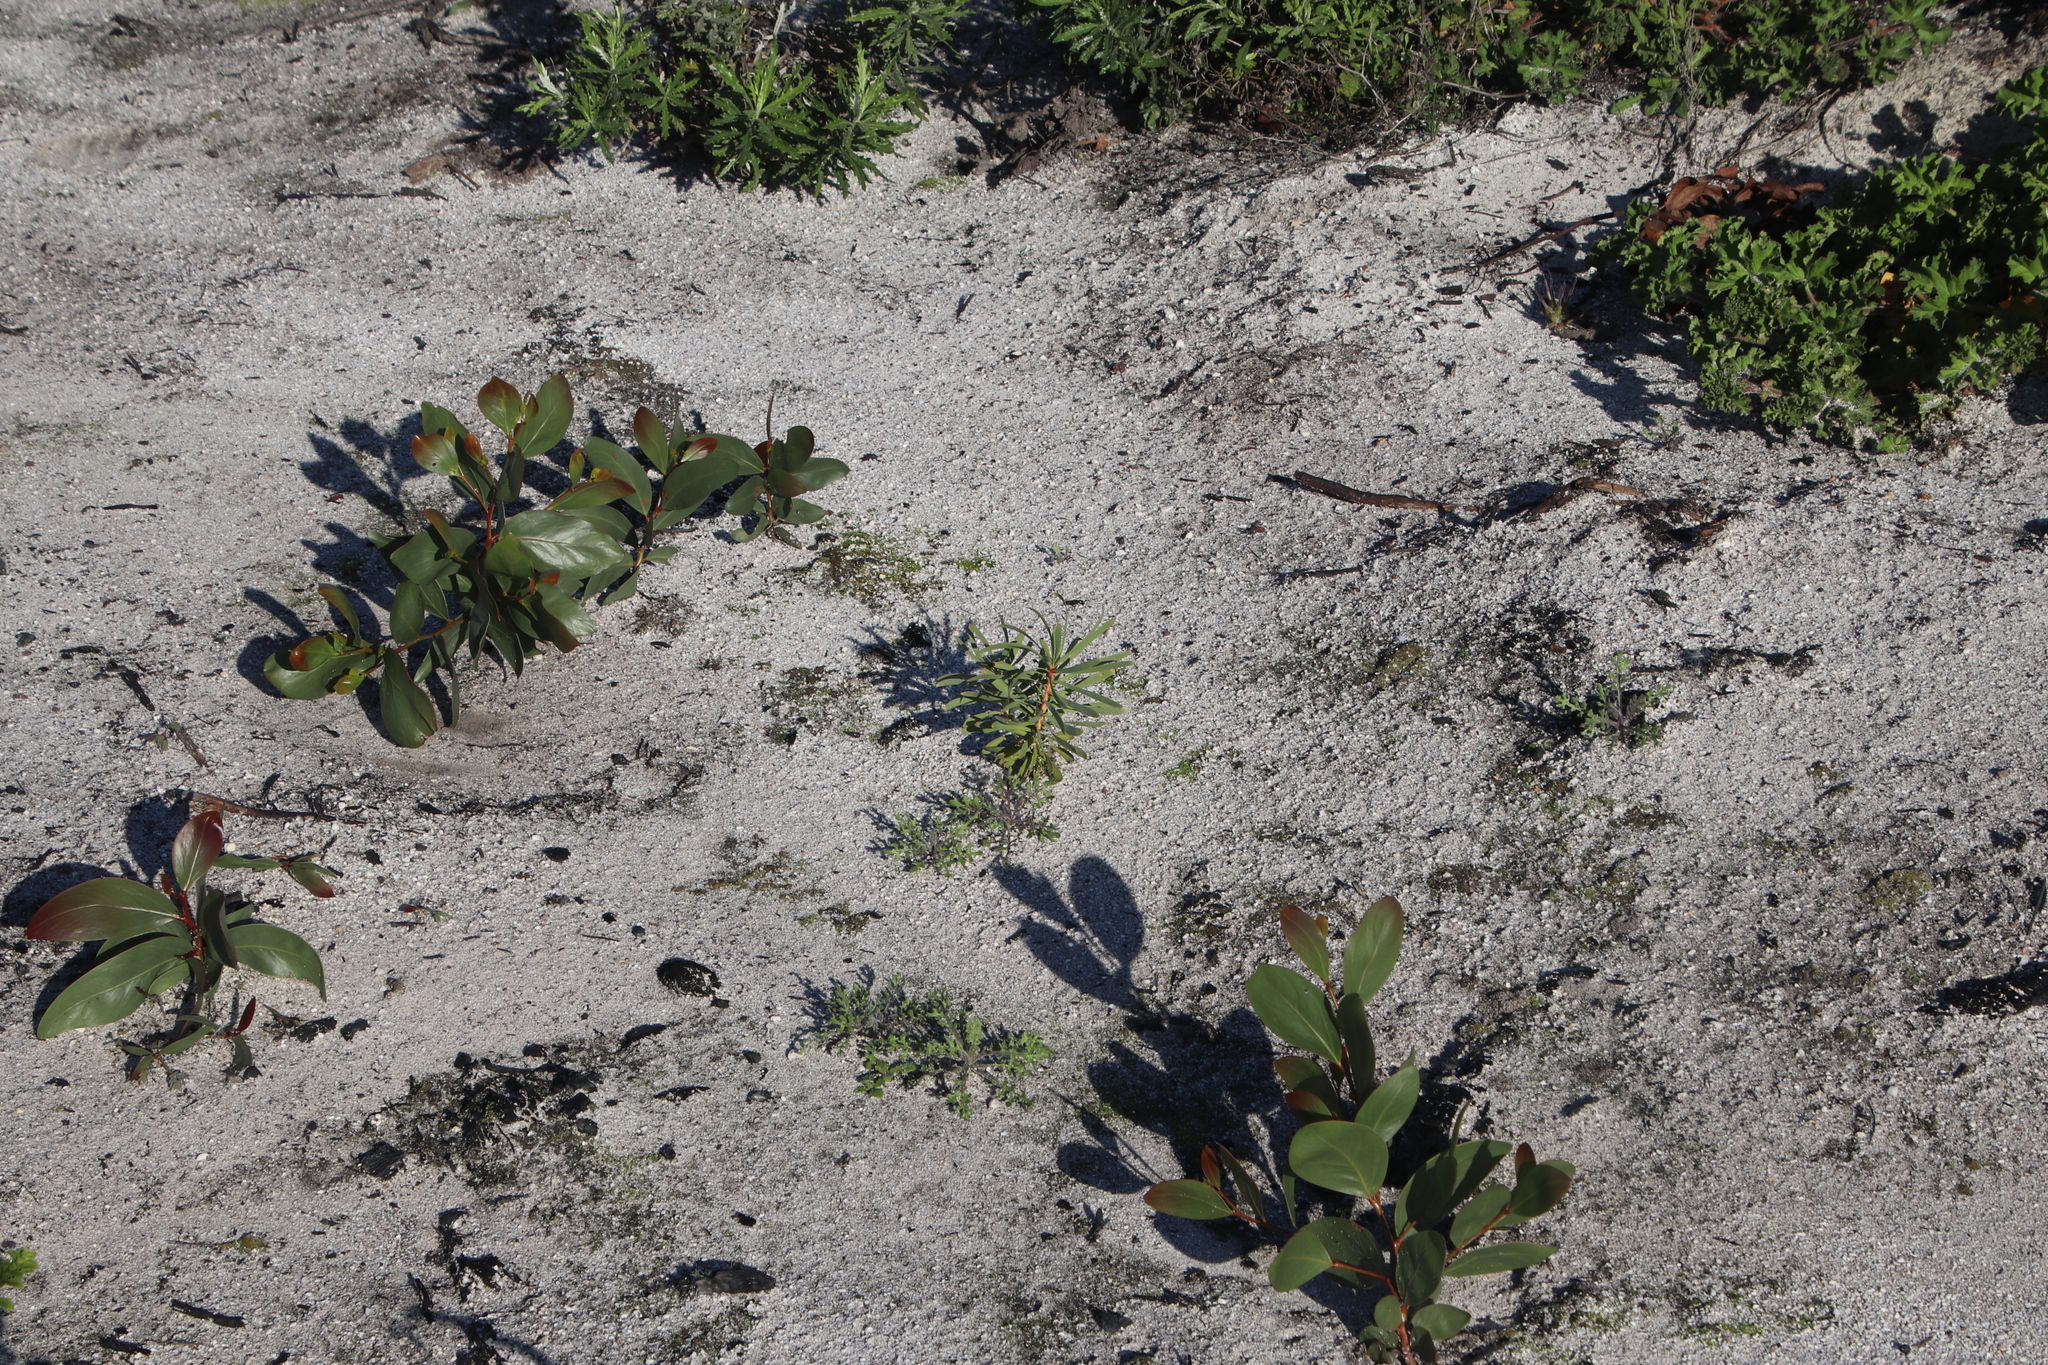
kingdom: Plantae
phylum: Tracheophyta
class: Magnoliopsida
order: Proteales
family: Proteaceae
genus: Protea
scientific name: Protea repens
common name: Sugarbush
